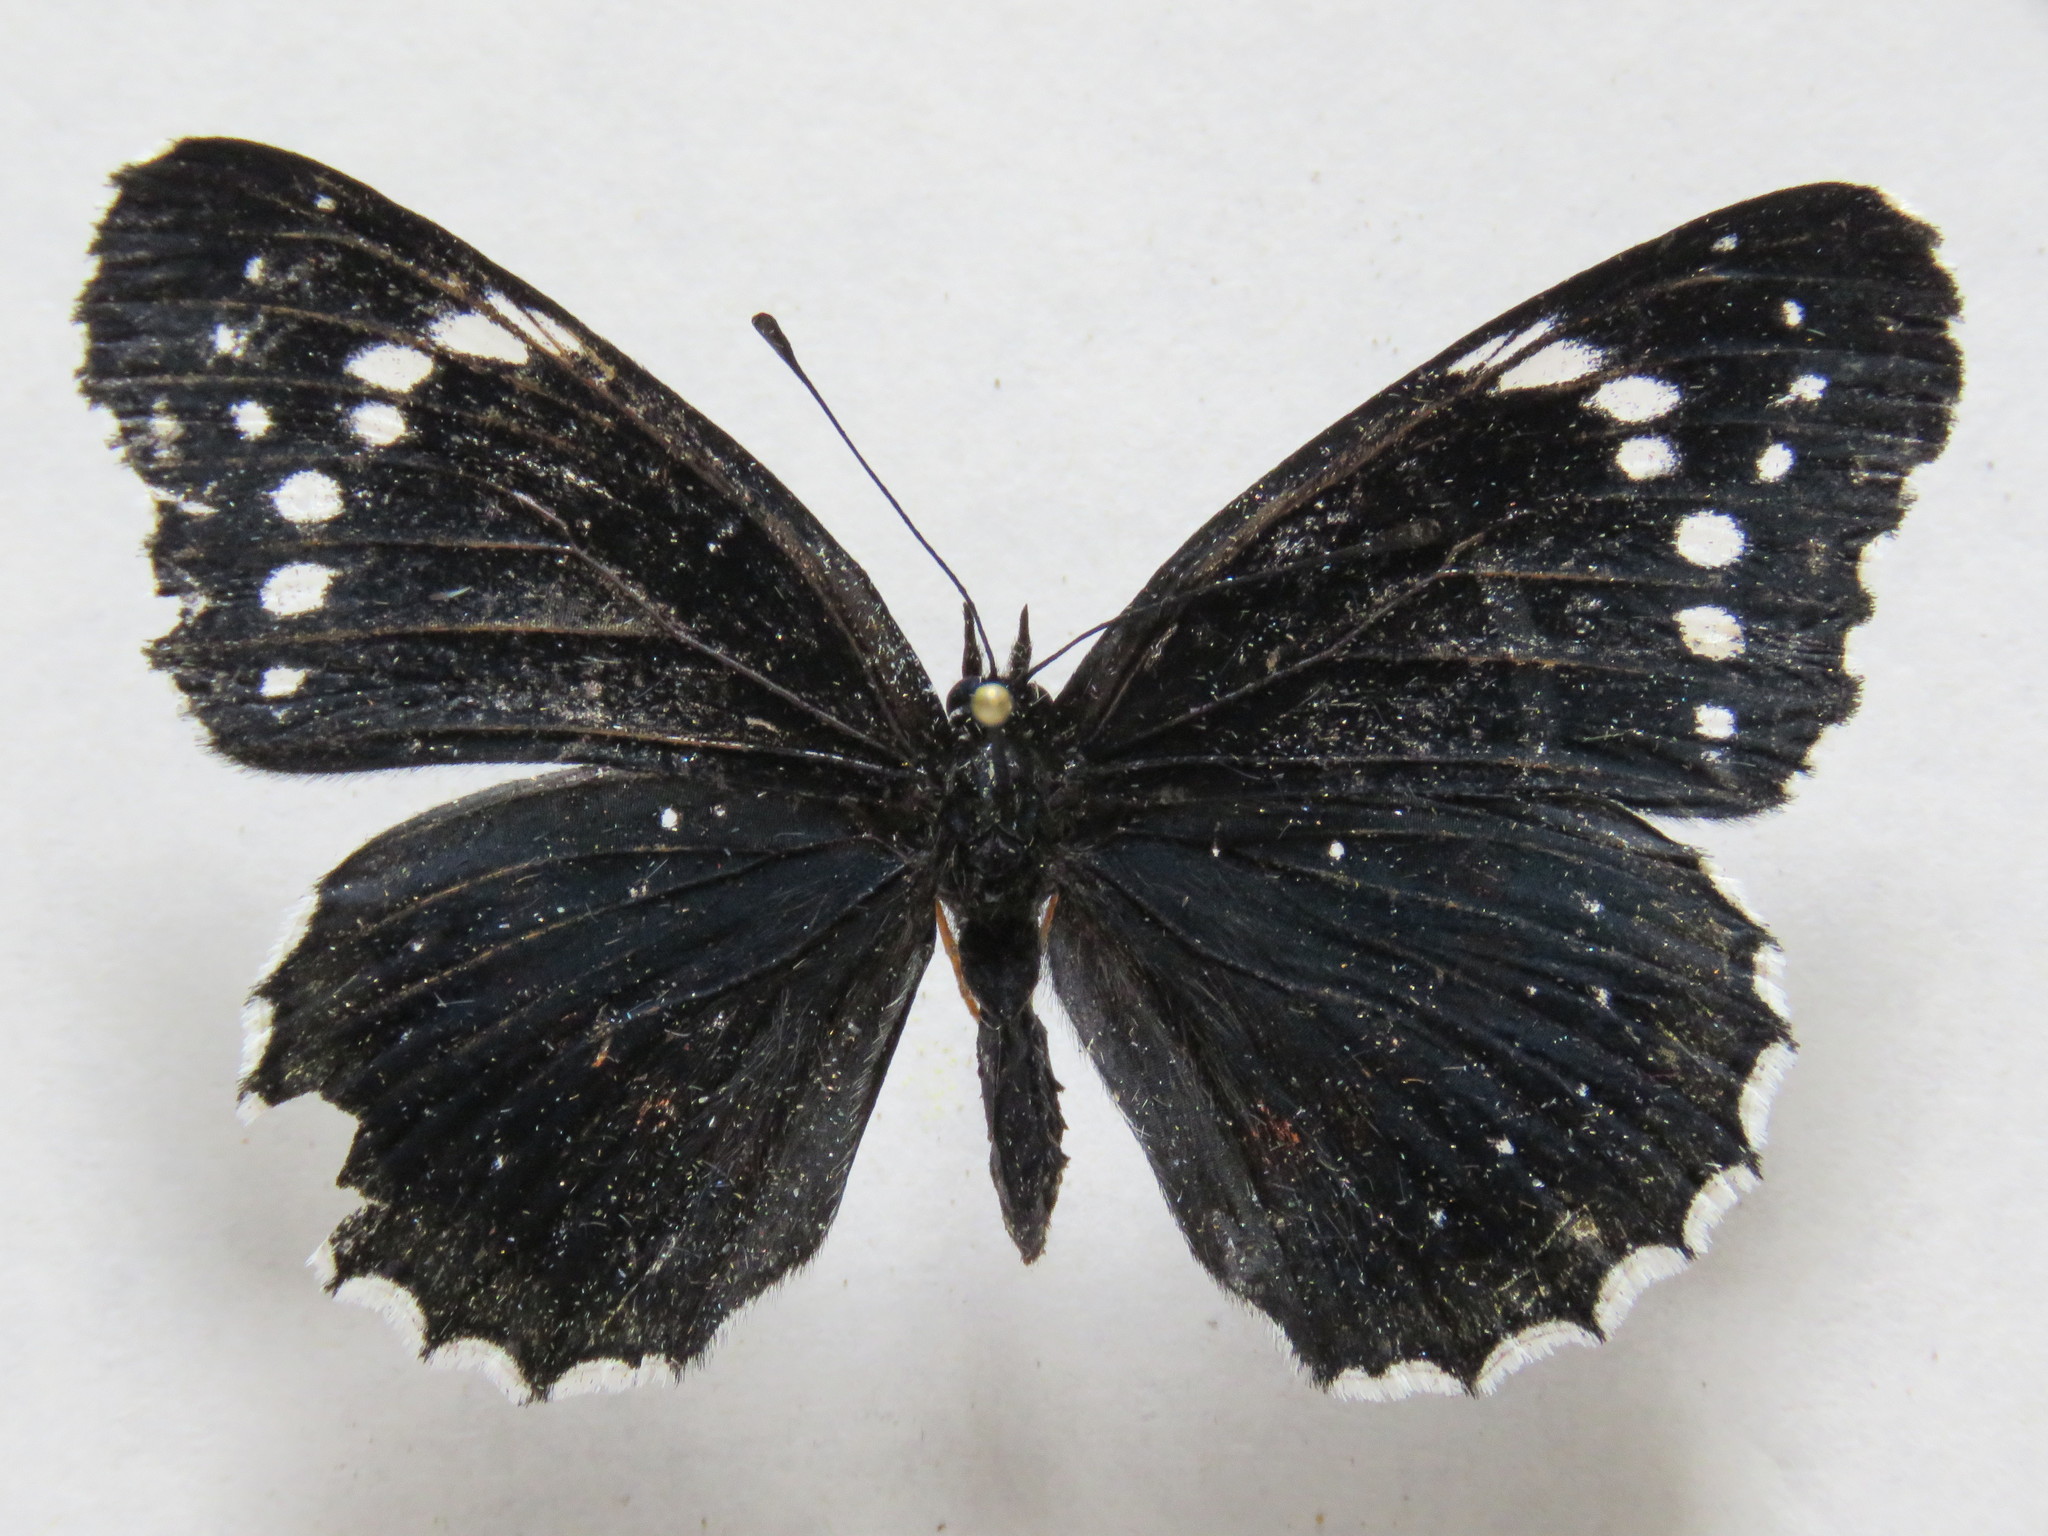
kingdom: Animalia
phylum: Arthropoda
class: Insecta
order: Lepidoptera
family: Nymphalidae
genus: Chlosyne
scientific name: Chlosyne hippodrome
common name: Simple patch
